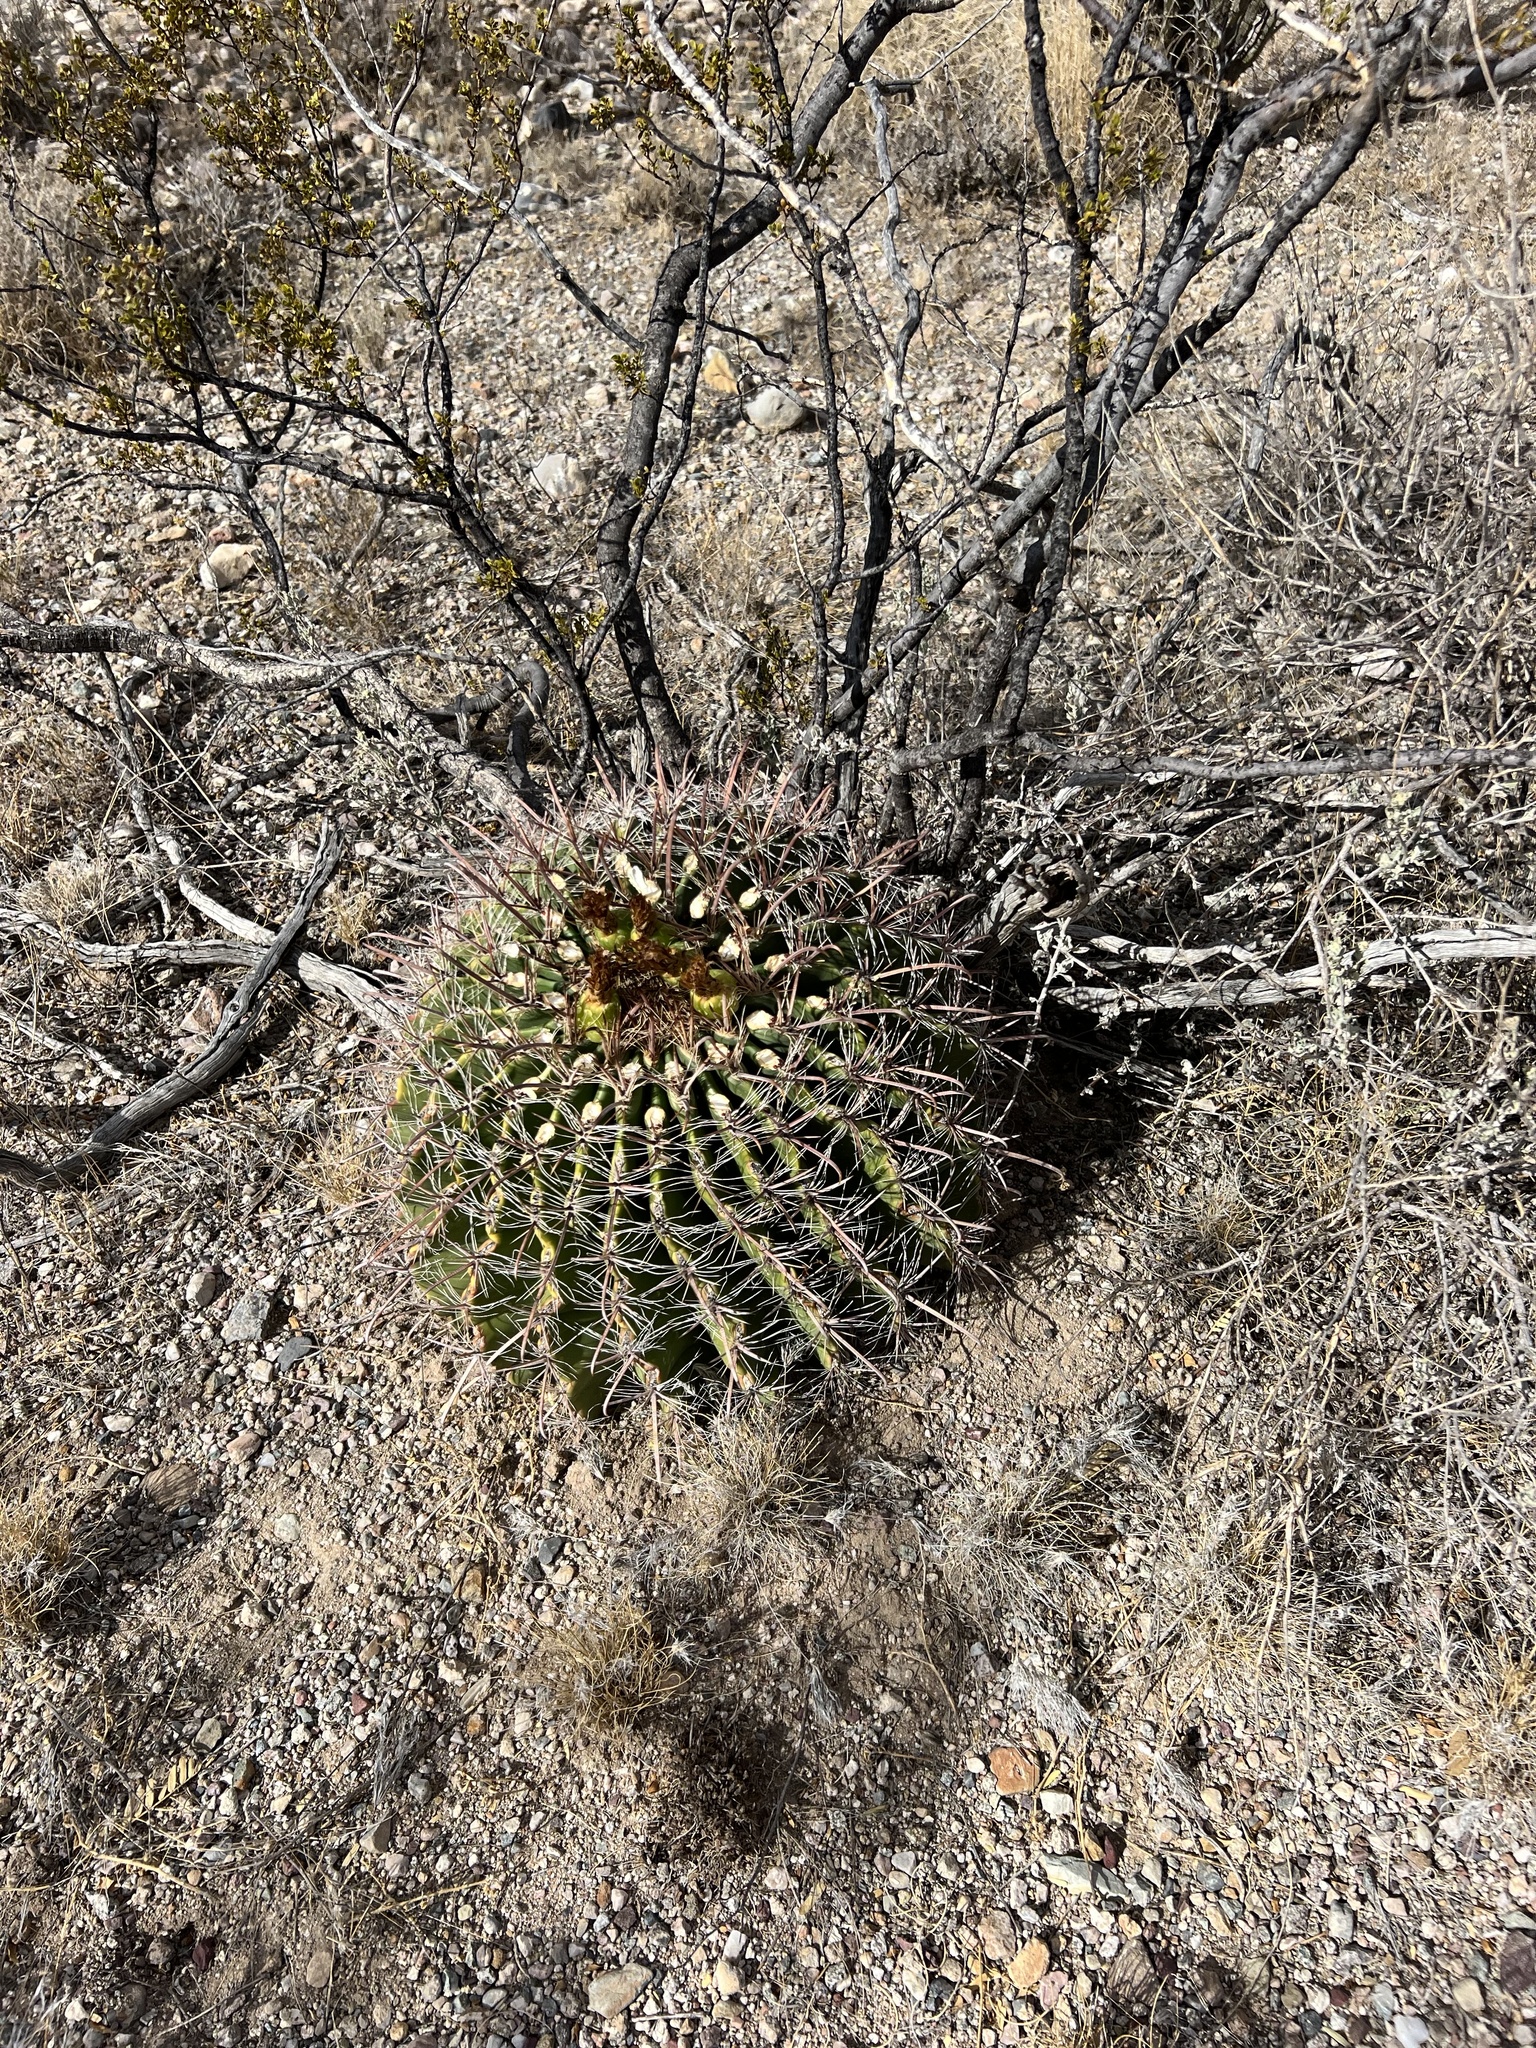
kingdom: Plantae
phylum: Tracheophyta
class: Magnoliopsida
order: Caryophyllales
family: Cactaceae
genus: Ferocactus
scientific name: Ferocactus wislizeni
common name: Candy barrel cactus
